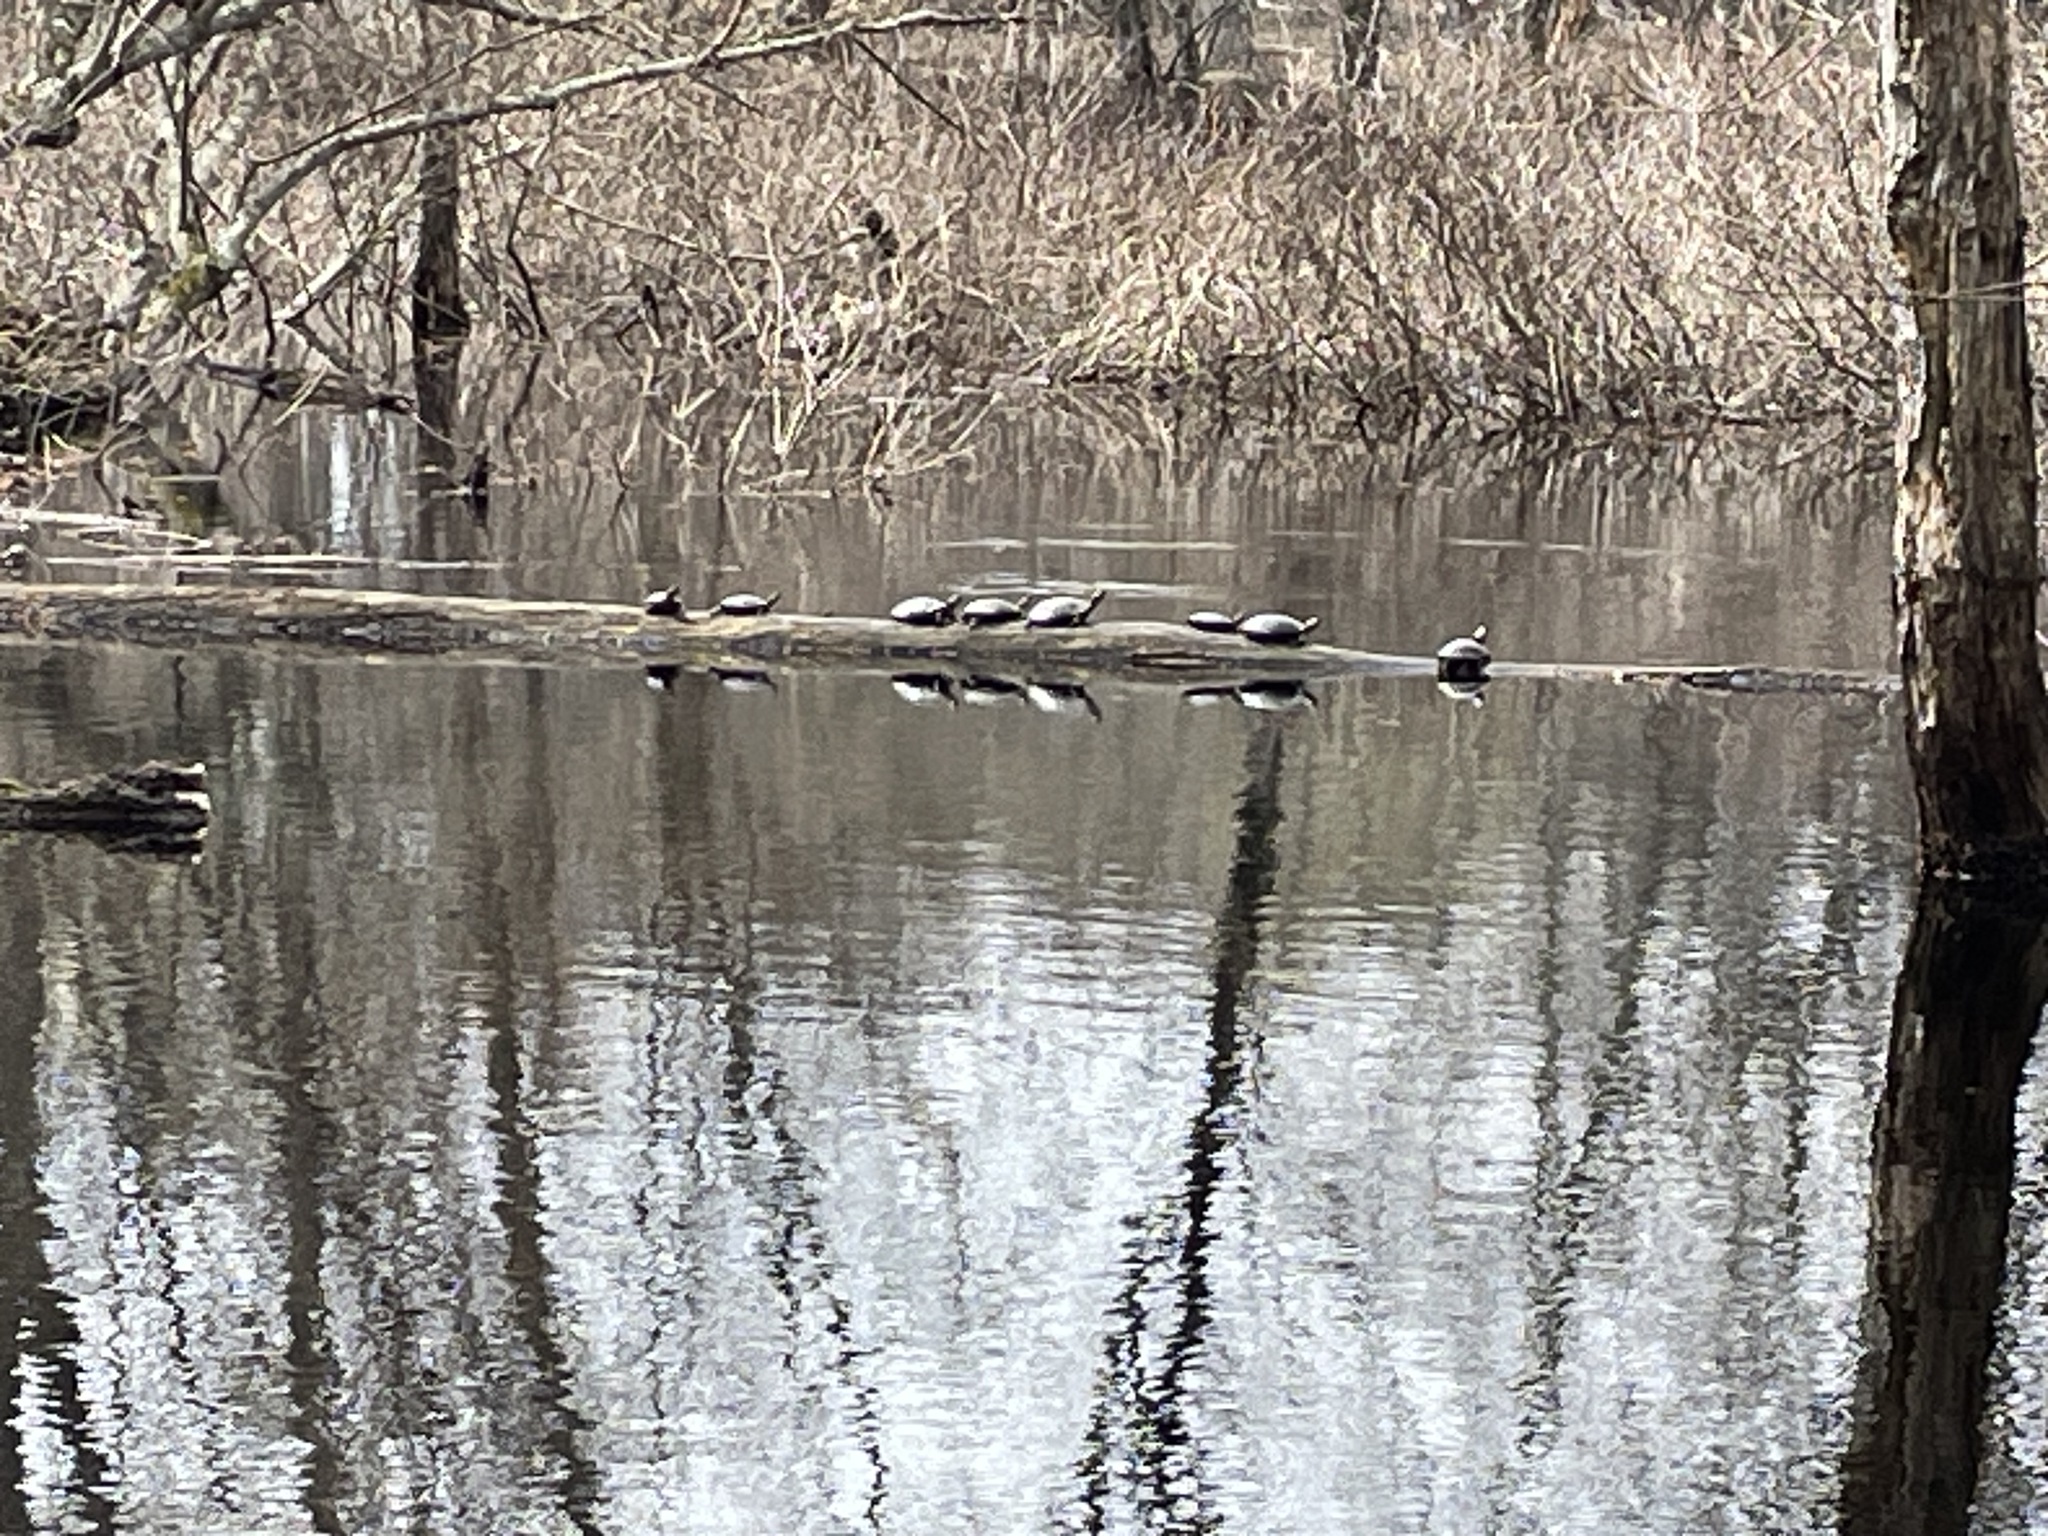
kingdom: Animalia
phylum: Chordata
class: Testudines
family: Emydidae
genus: Chrysemys
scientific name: Chrysemys picta
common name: Painted turtle
